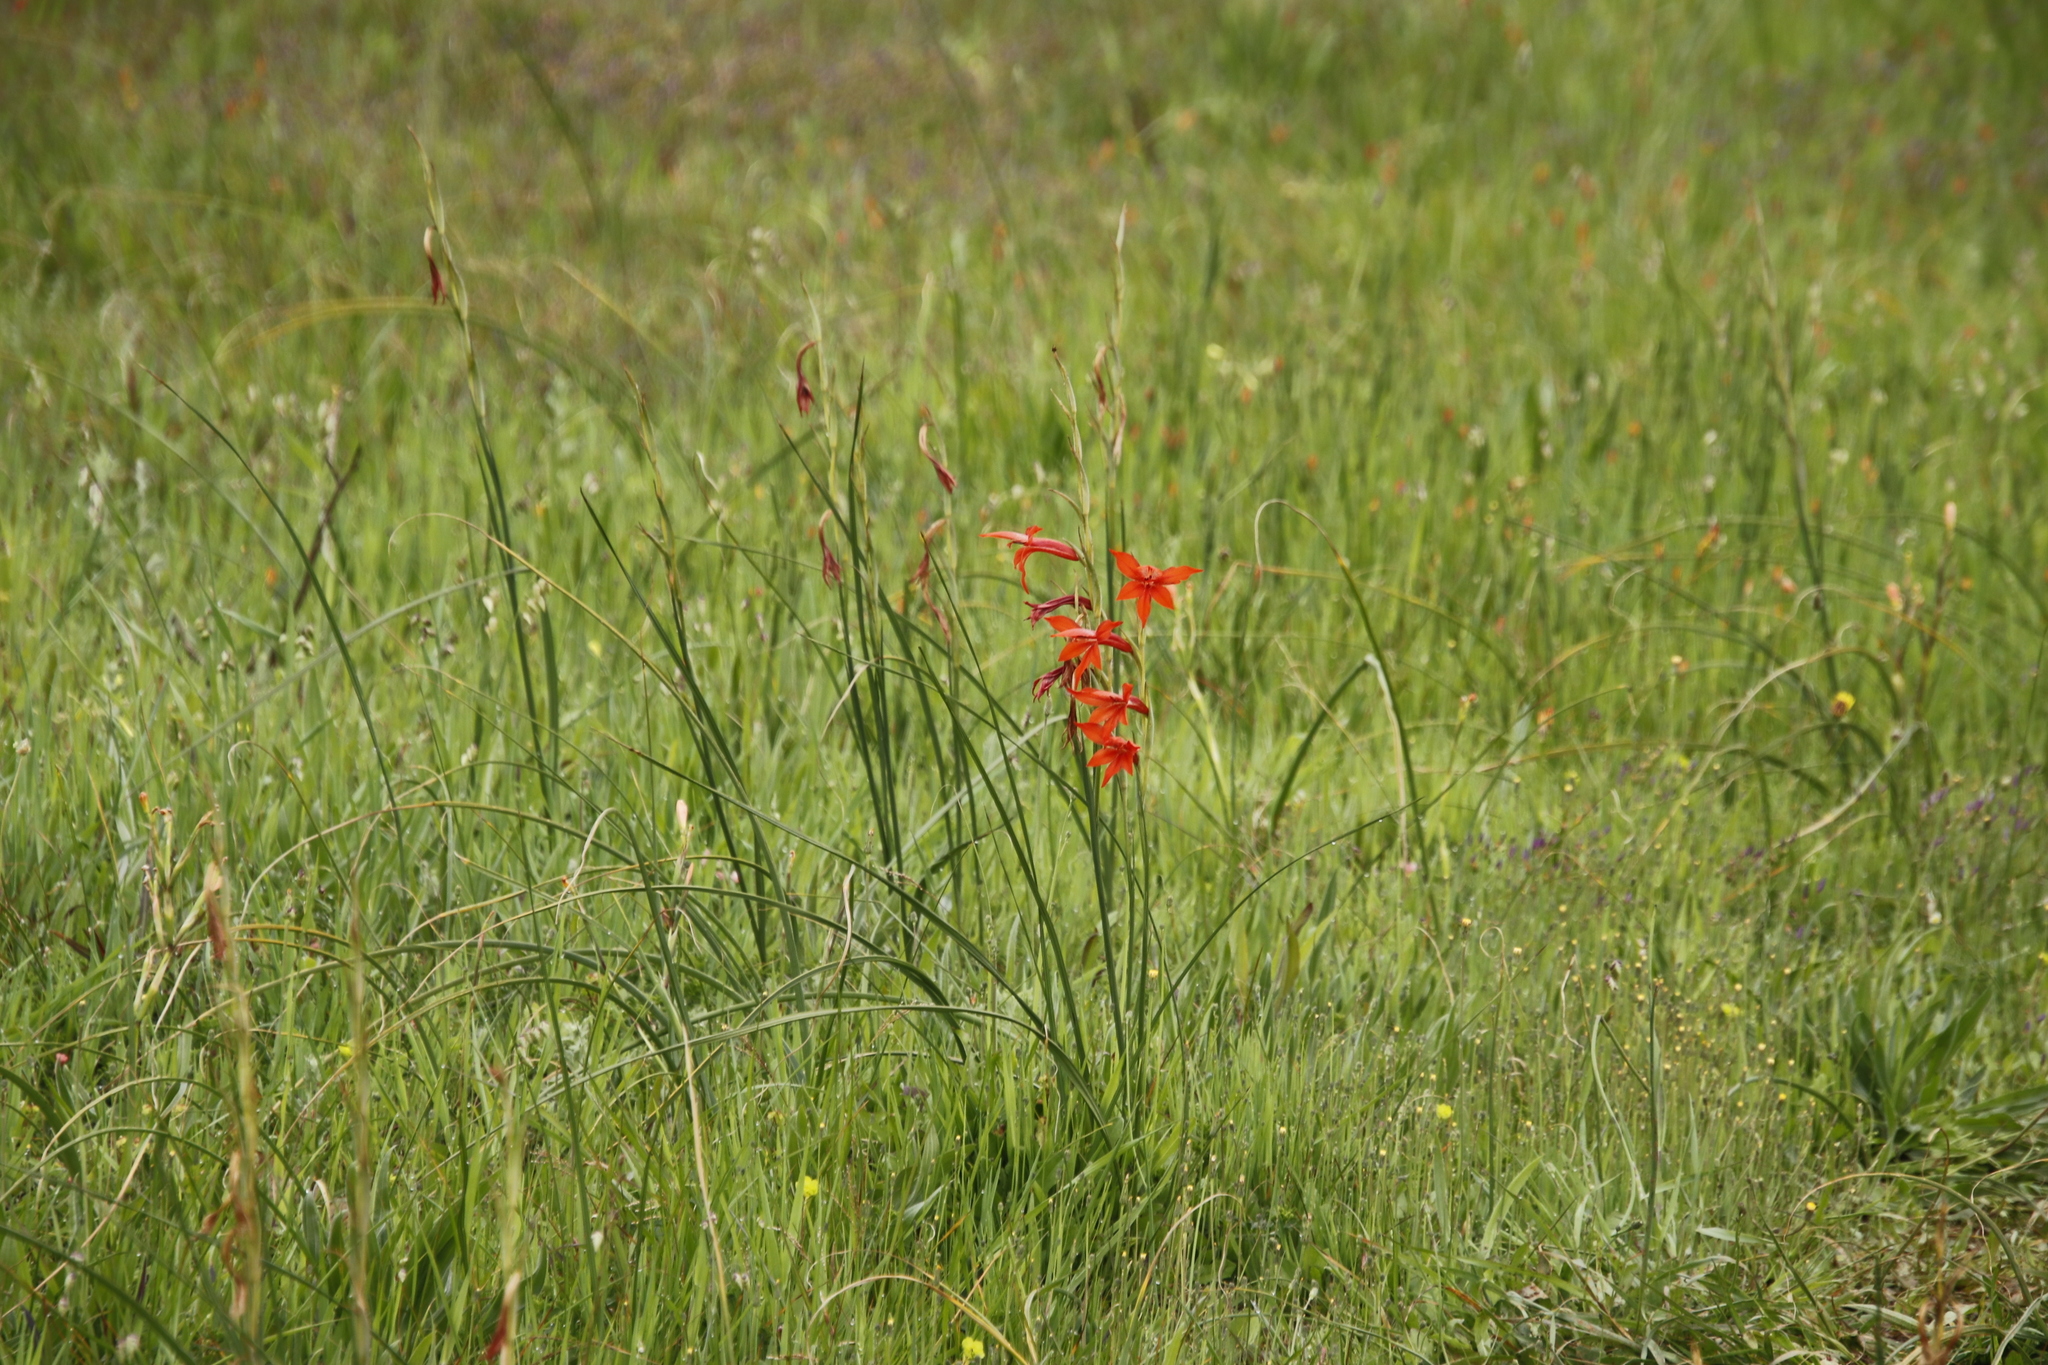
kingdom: Plantae
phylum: Tracheophyta
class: Liliopsida
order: Asparagales
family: Iridaceae
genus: Gladiolus
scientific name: Gladiolus watsonius
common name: Red afrikaner
